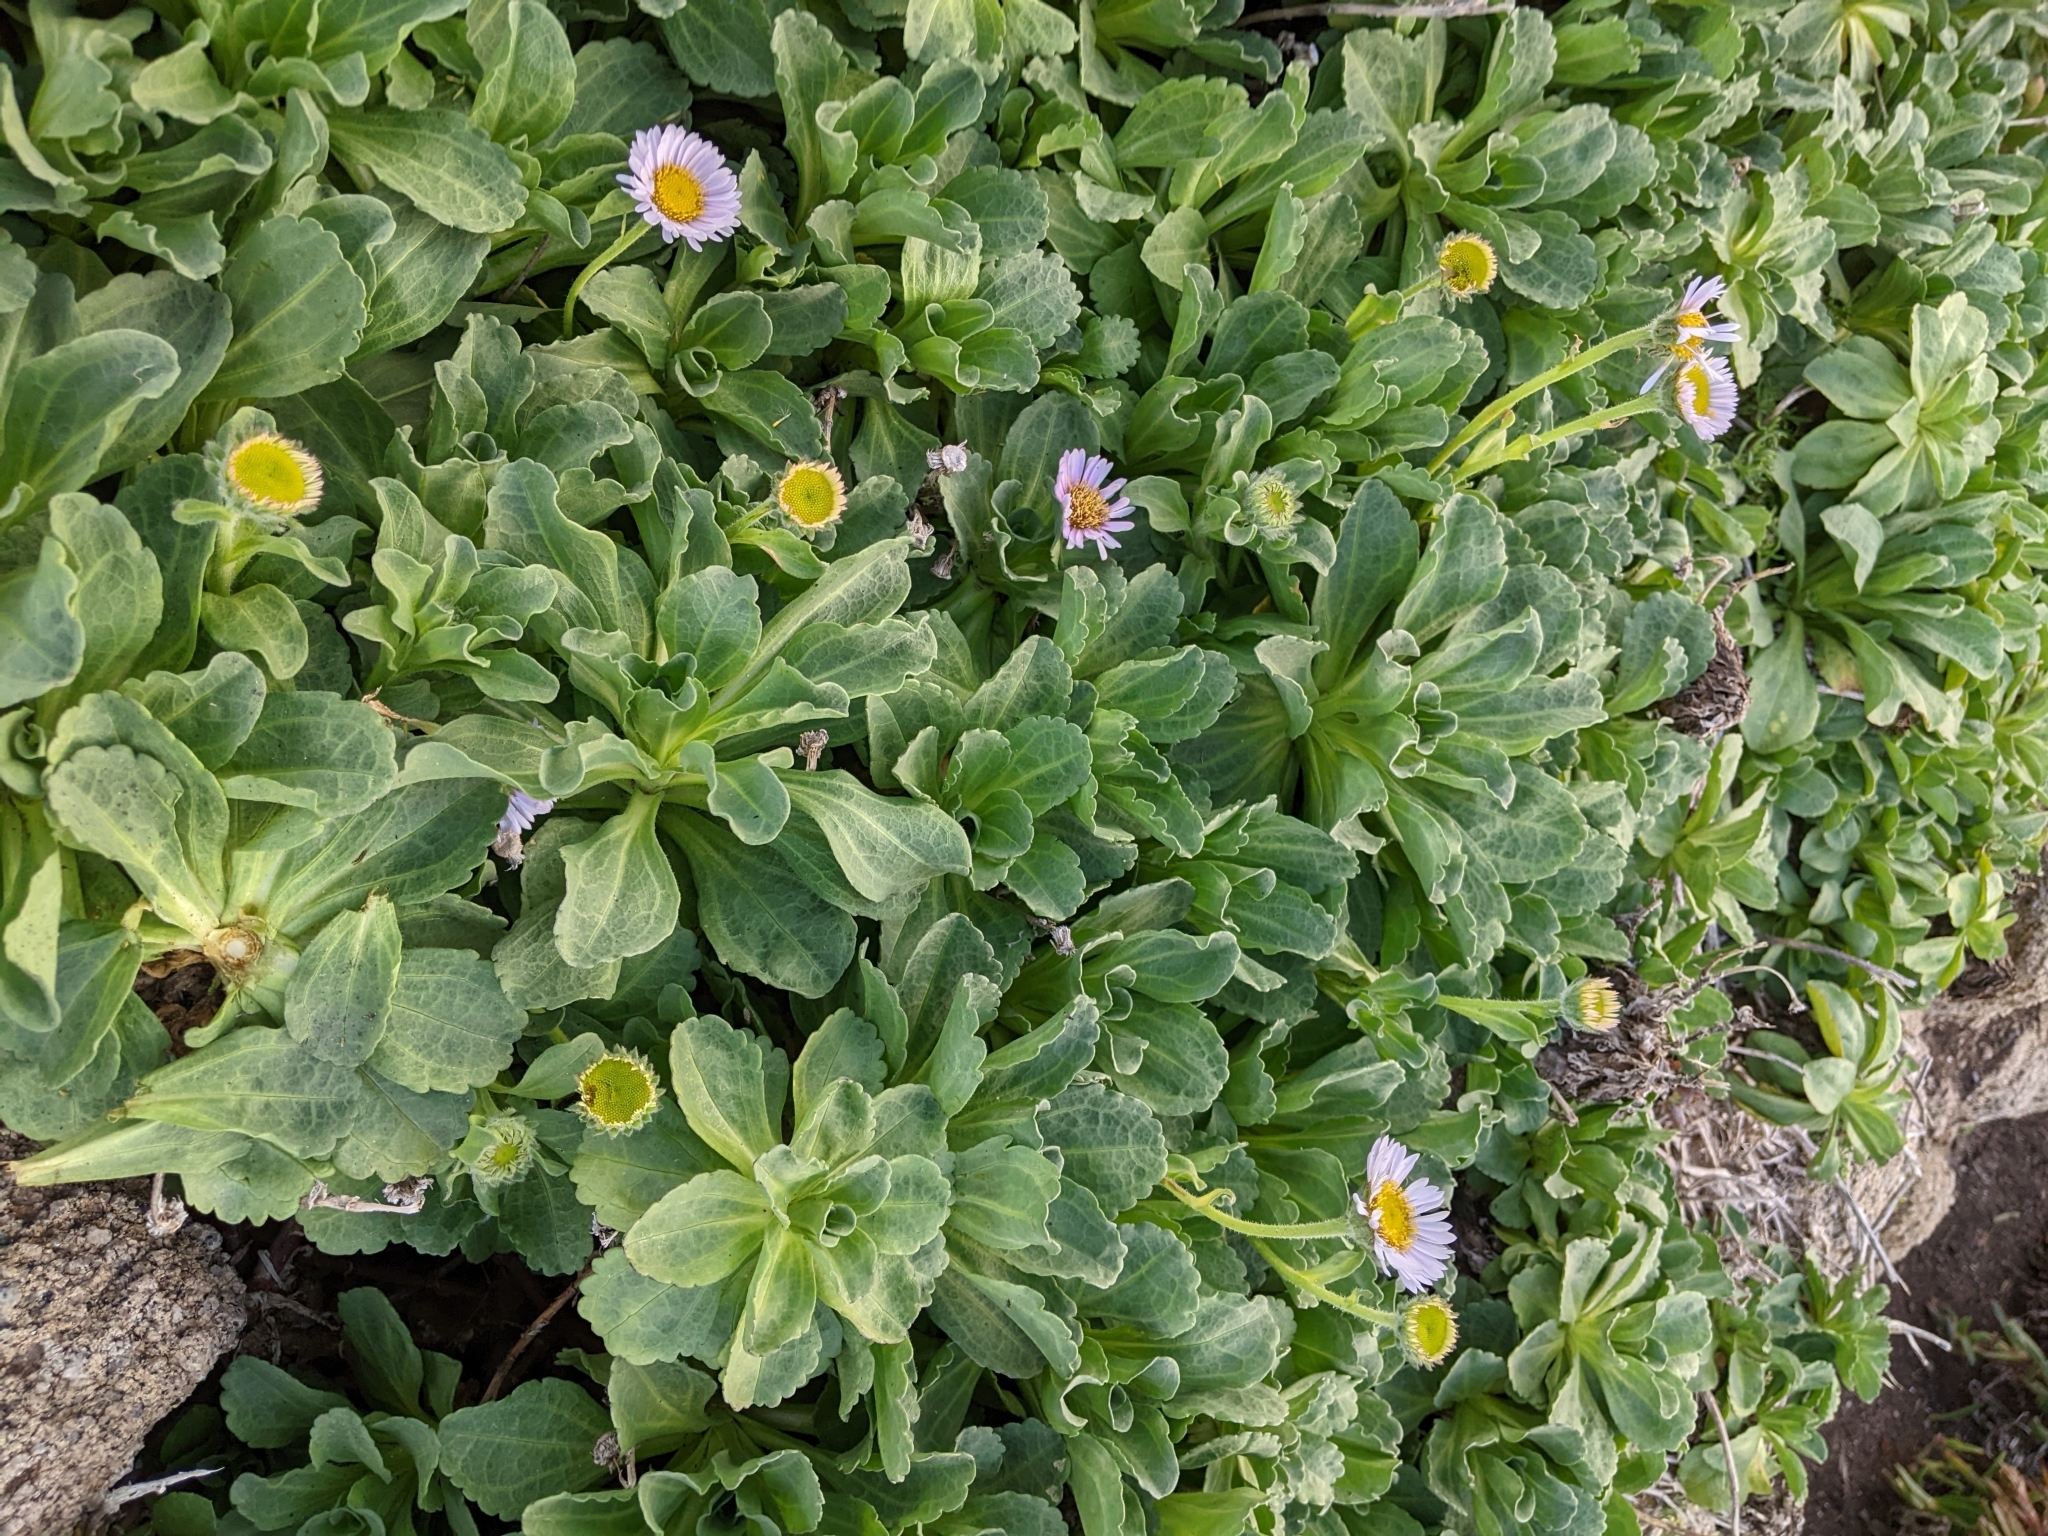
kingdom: Plantae
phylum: Tracheophyta
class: Magnoliopsida
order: Asterales
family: Asteraceae
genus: Erigeron
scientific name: Erigeron glaucus
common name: Seaside daisy
